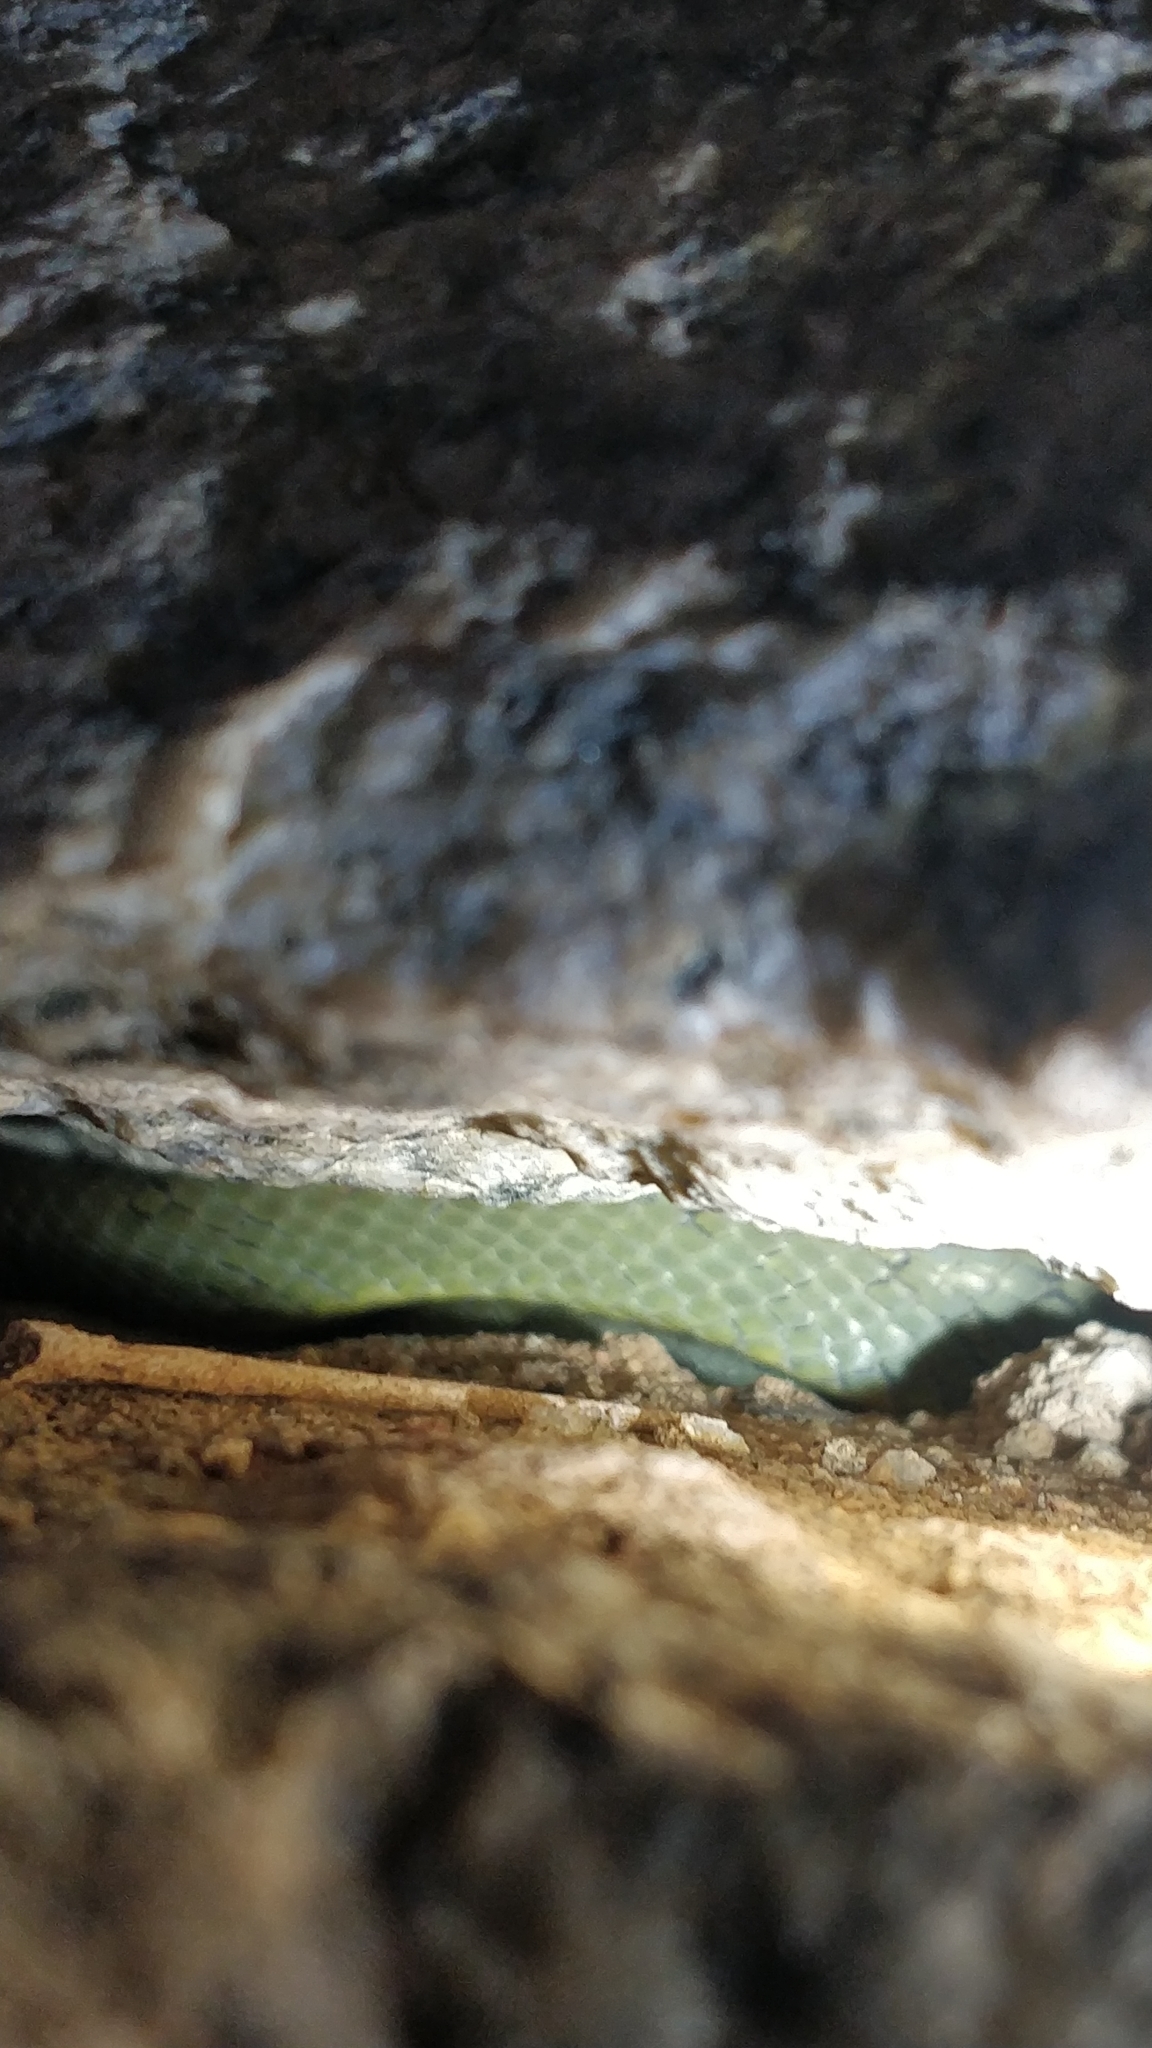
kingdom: Animalia
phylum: Chordata
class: Squamata
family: Colubridae
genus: Boiga
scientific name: Boiga flaviviridis
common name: Yellow-green cat snake
